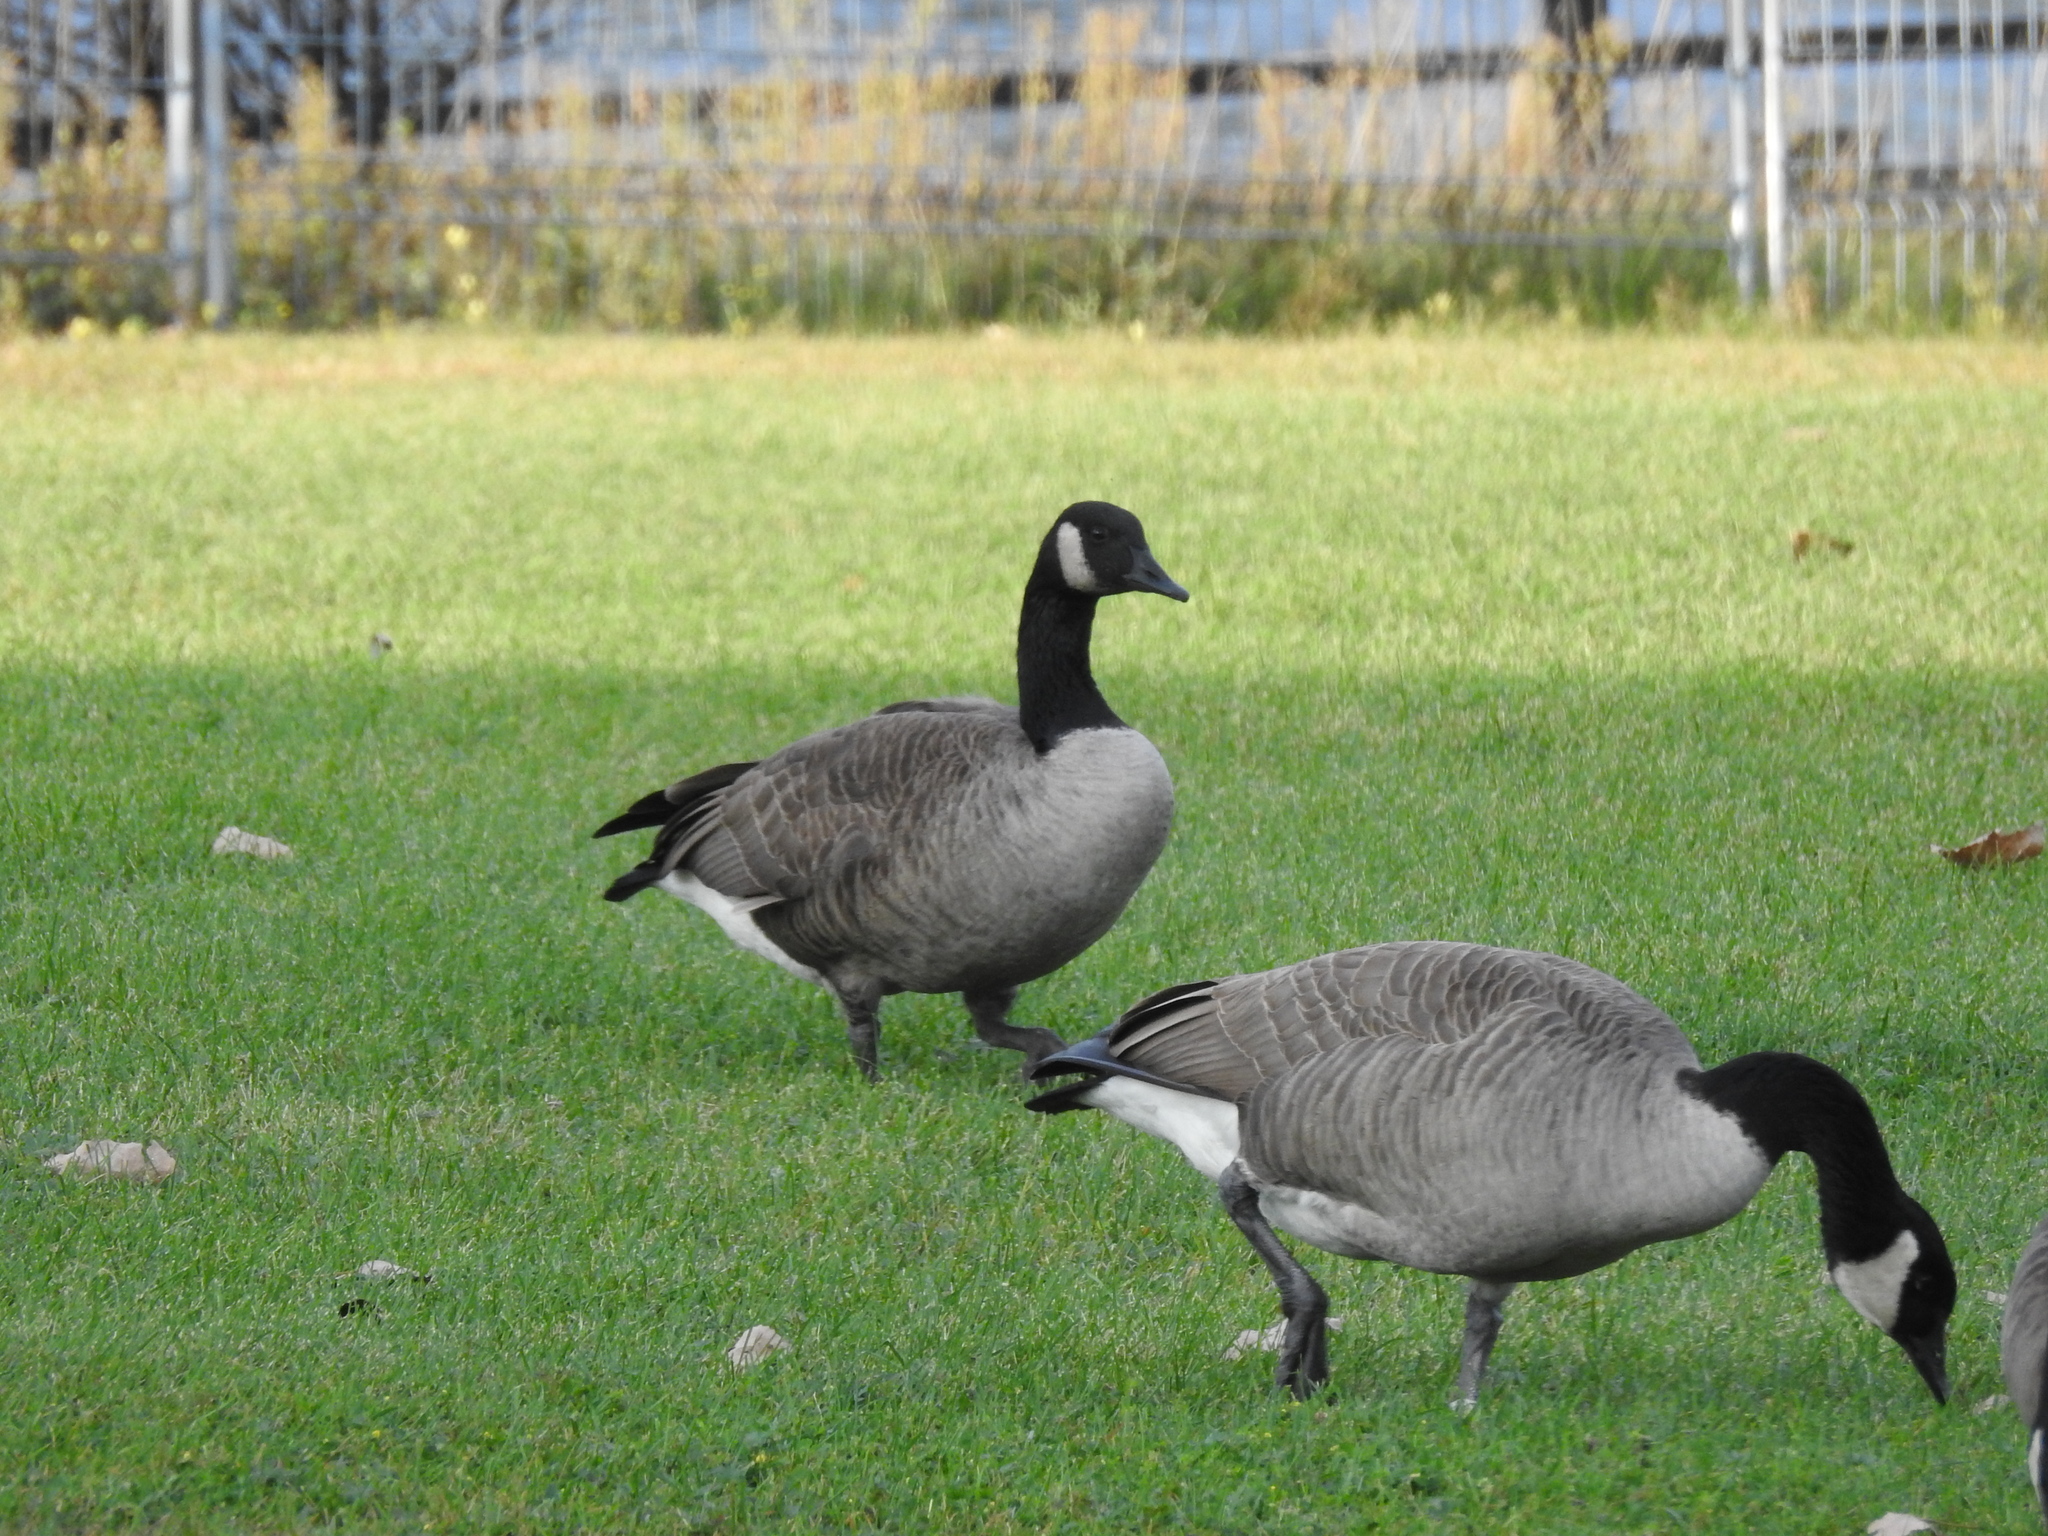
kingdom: Animalia
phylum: Chordata
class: Aves
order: Anseriformes
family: Anatidae
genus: Branta
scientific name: Branta canadensis
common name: Canada goose
